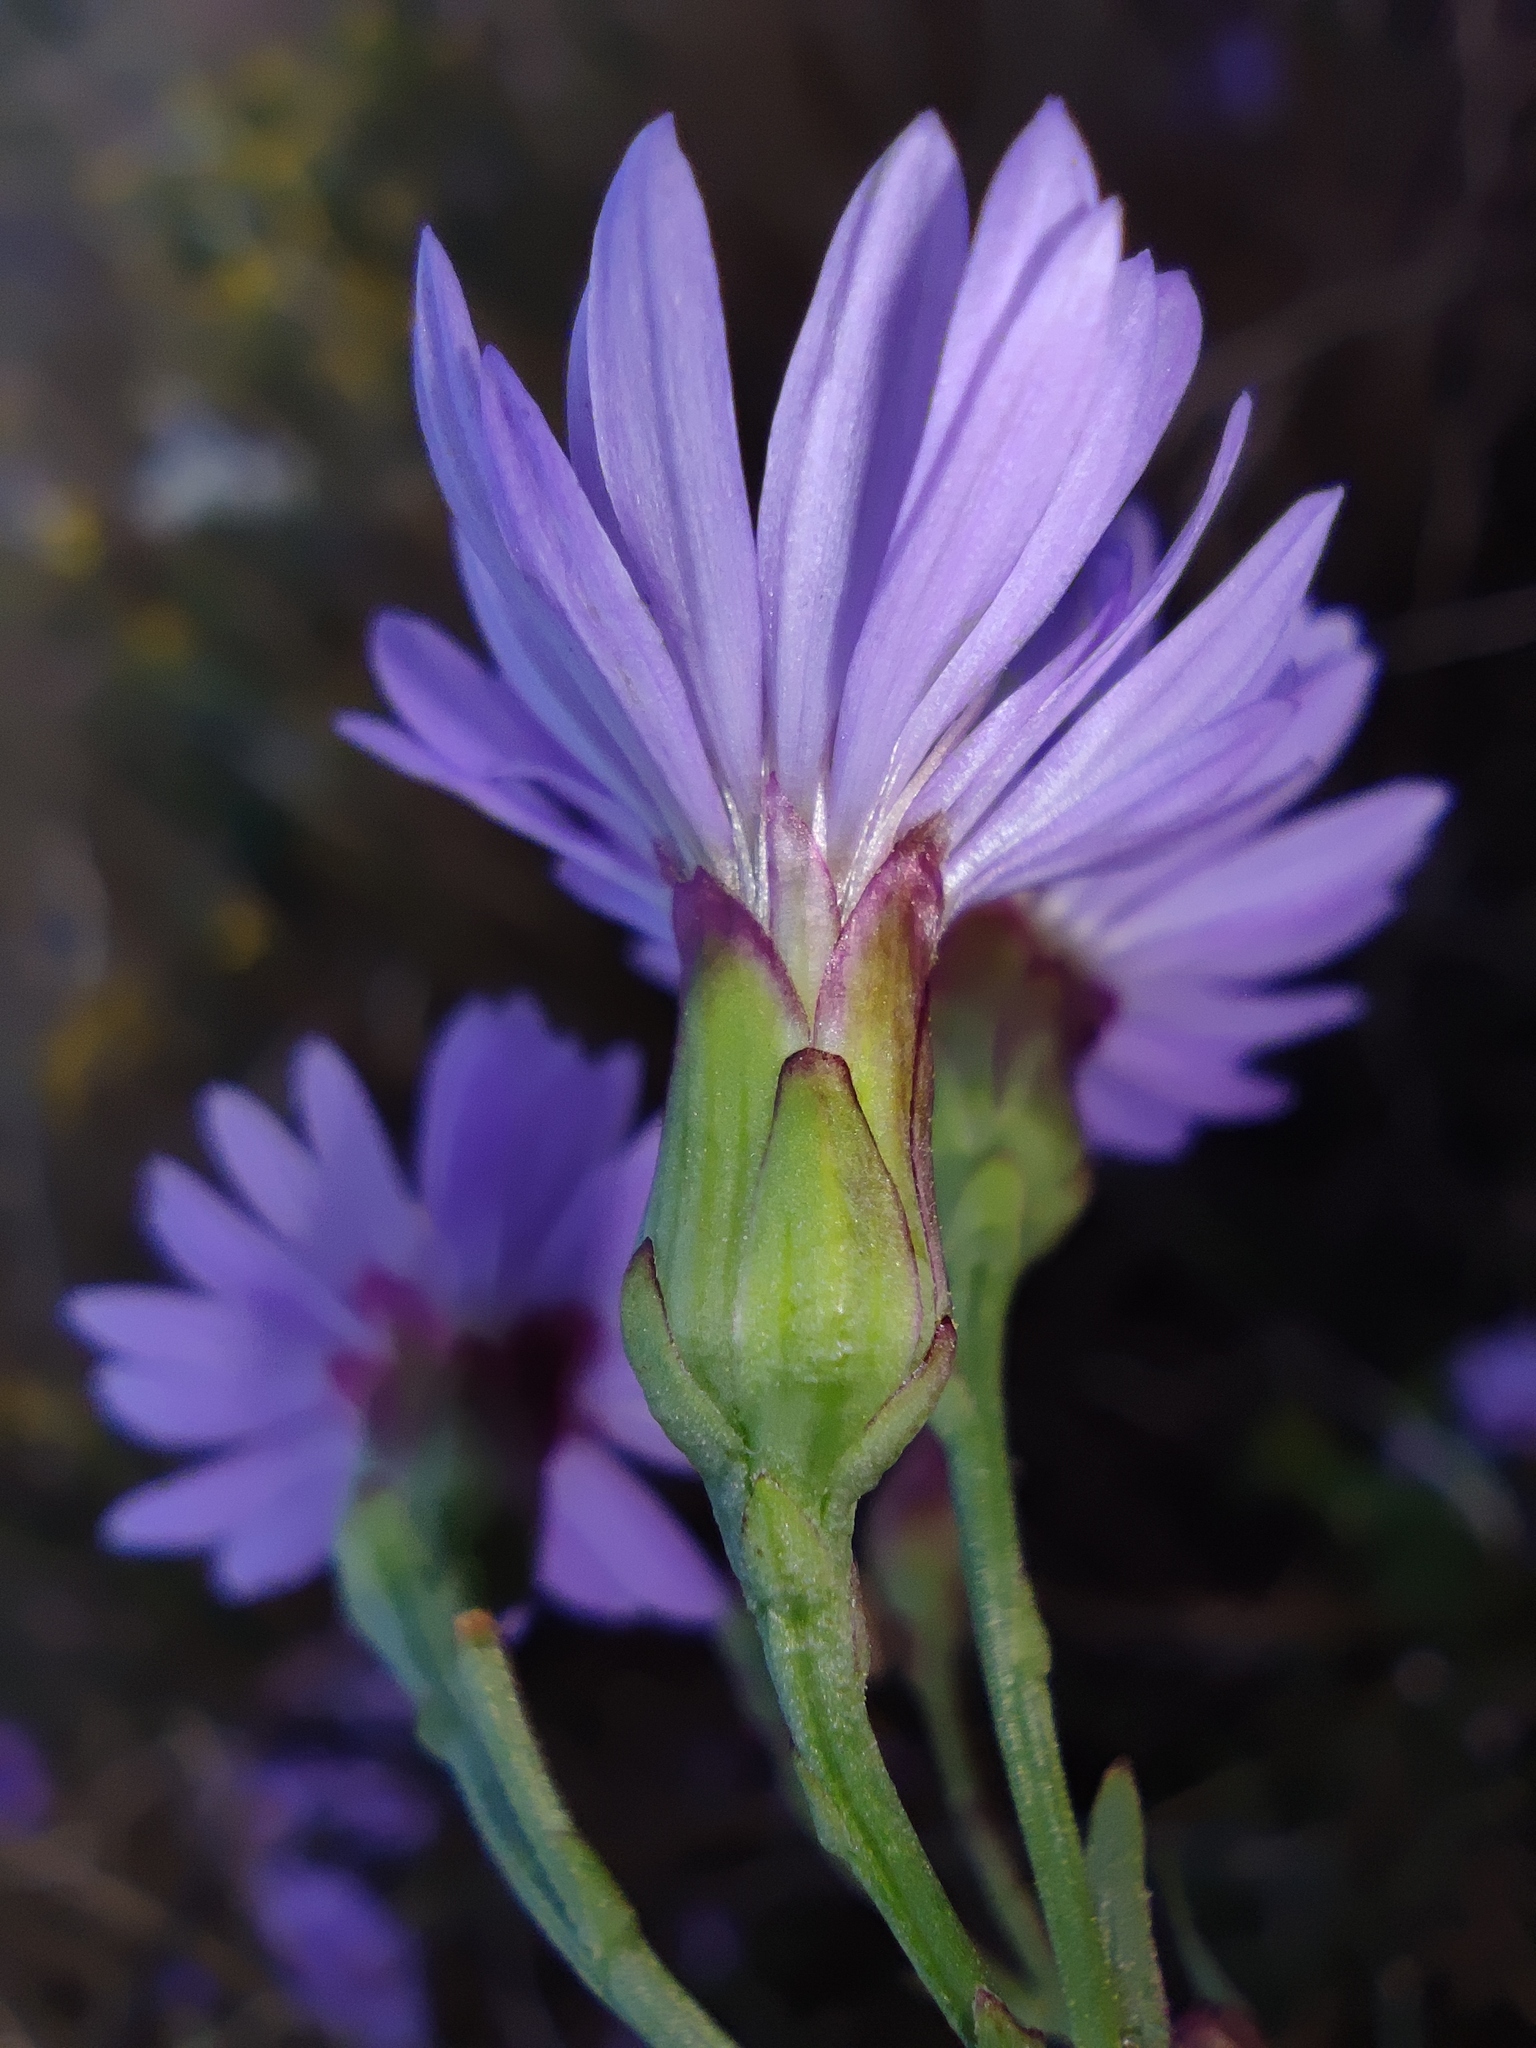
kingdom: Plantae
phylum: Tracheophyta
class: Magnoliopsida
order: Asterales
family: Asteraceae
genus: Tripolium
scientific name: Tripolium pannonicum
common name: Sea aster
